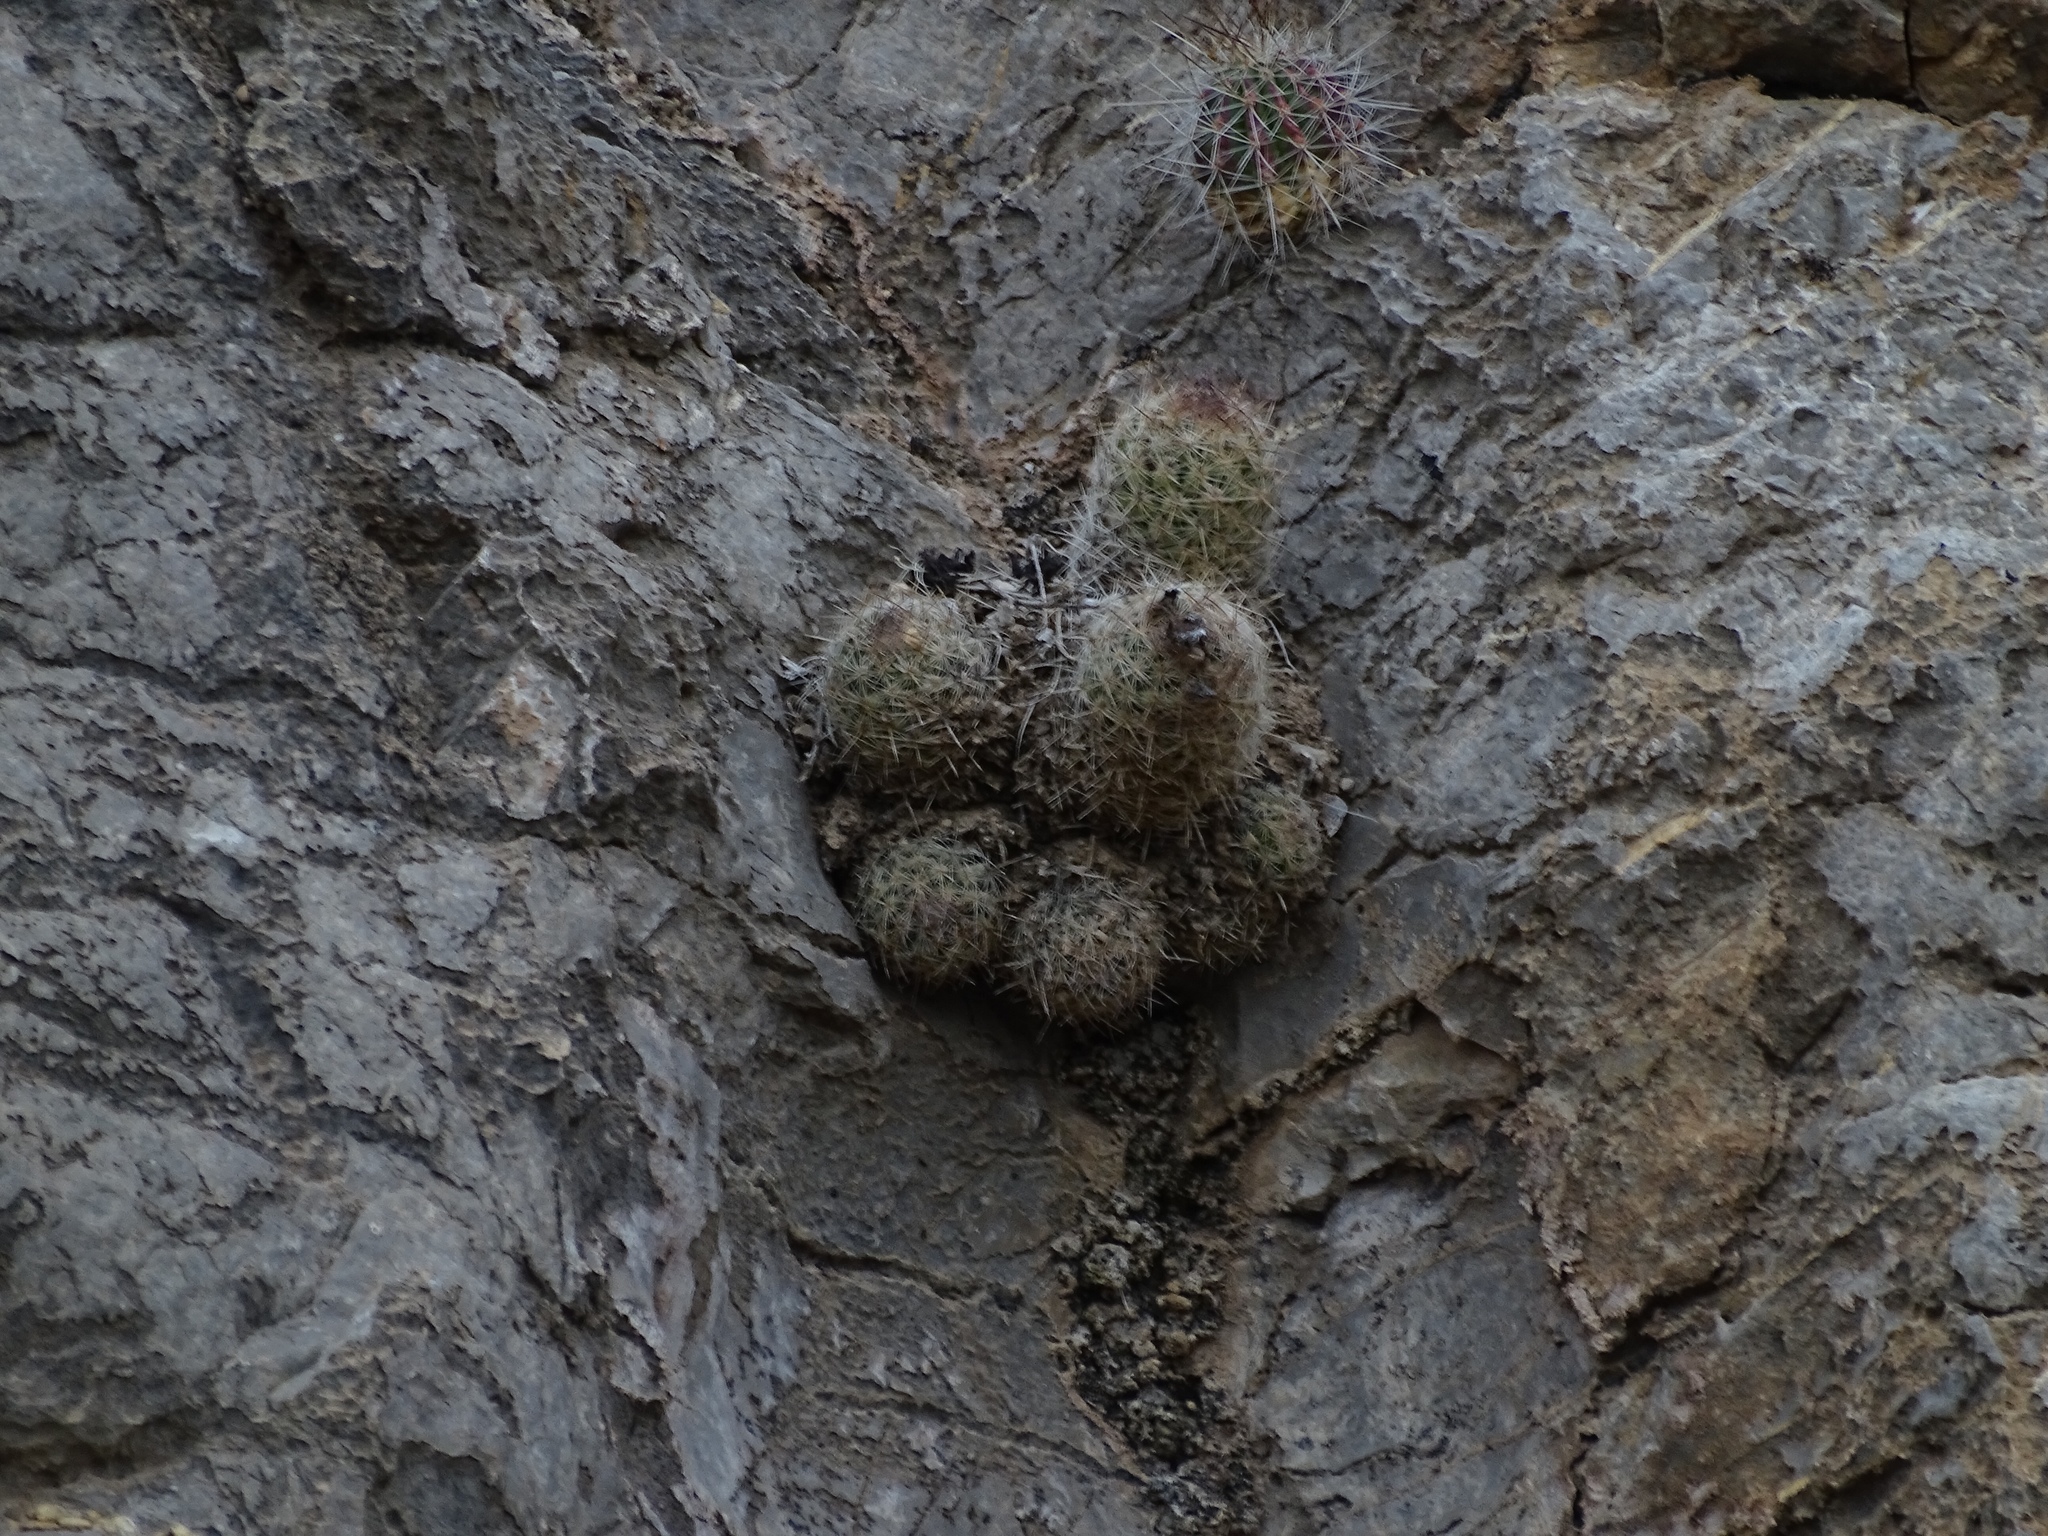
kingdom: Plantae
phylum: Tracheophyta
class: Magnoliopsida
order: Caryophyllales
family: Cactaceae
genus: Pelecyphora
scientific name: Pelecyphora tuberculosa
